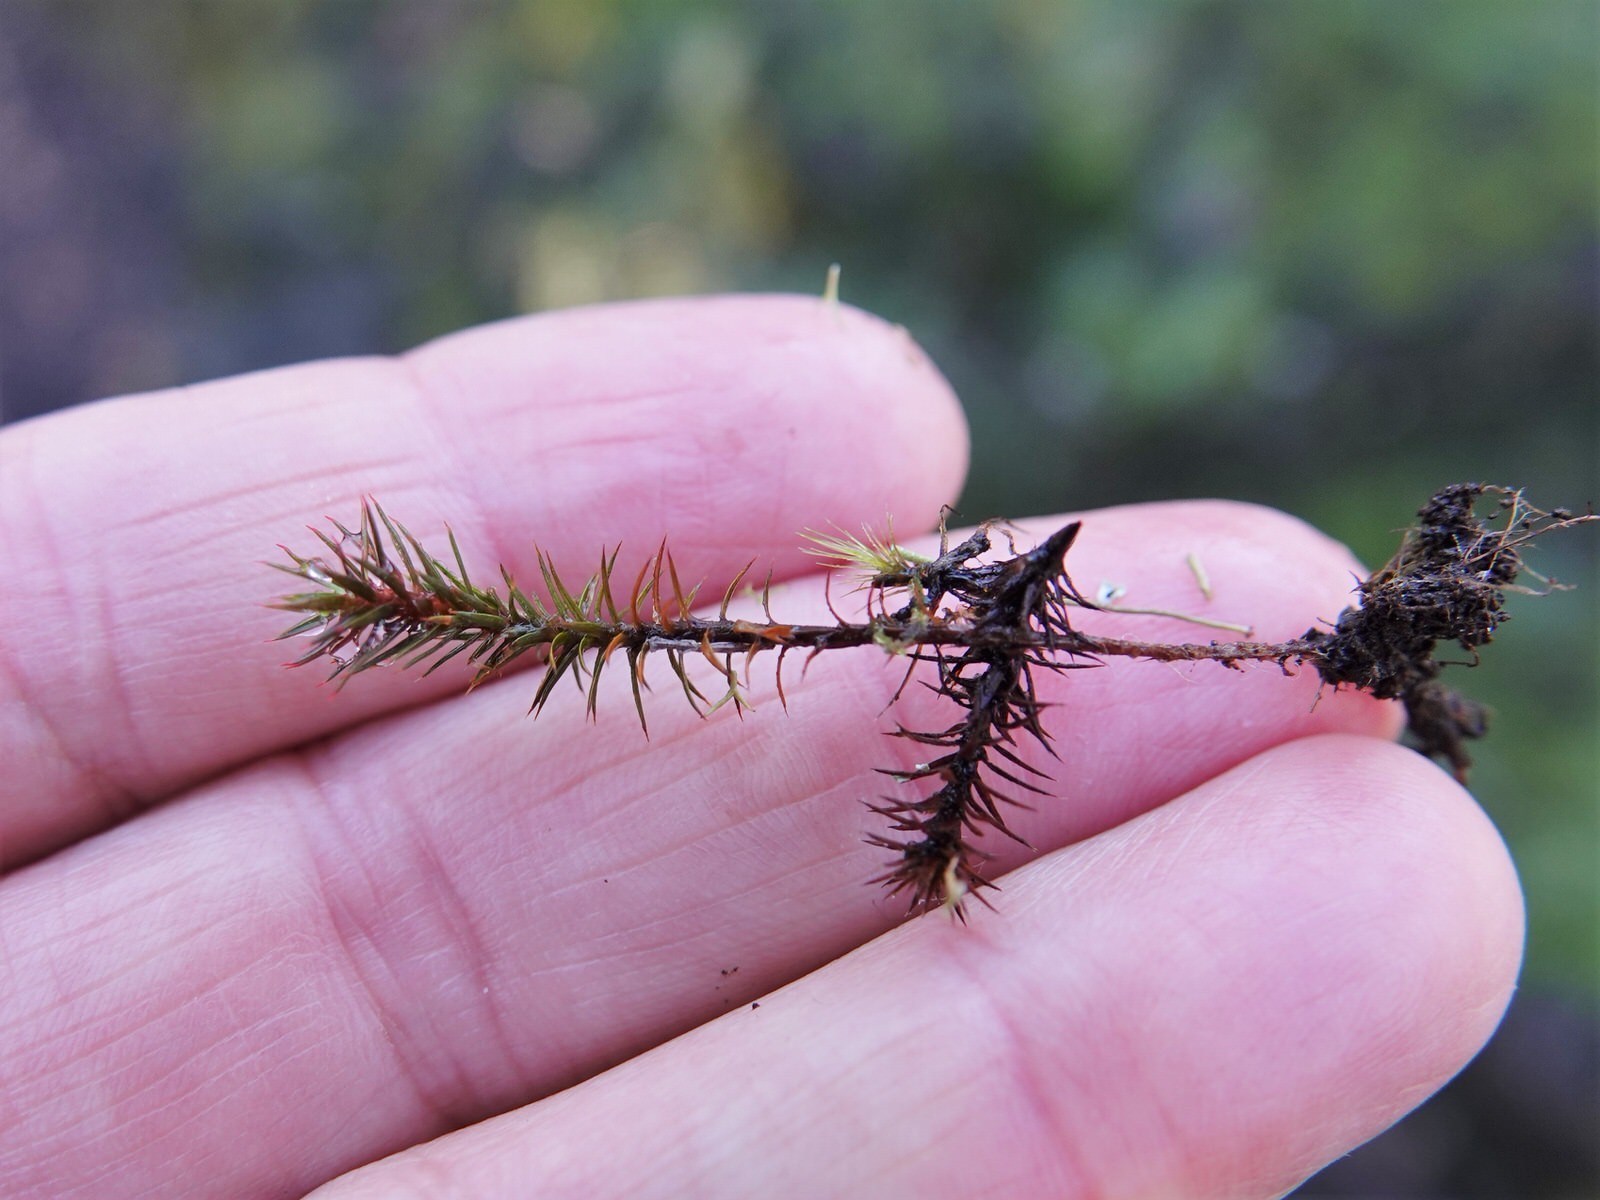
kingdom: Plantae
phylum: Bryophyta
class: Polytrichopsida
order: Polytrichales
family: Polytrichaceae
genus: Polytrichum
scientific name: Polytrichum juniperinum
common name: Juniper haircap moss
